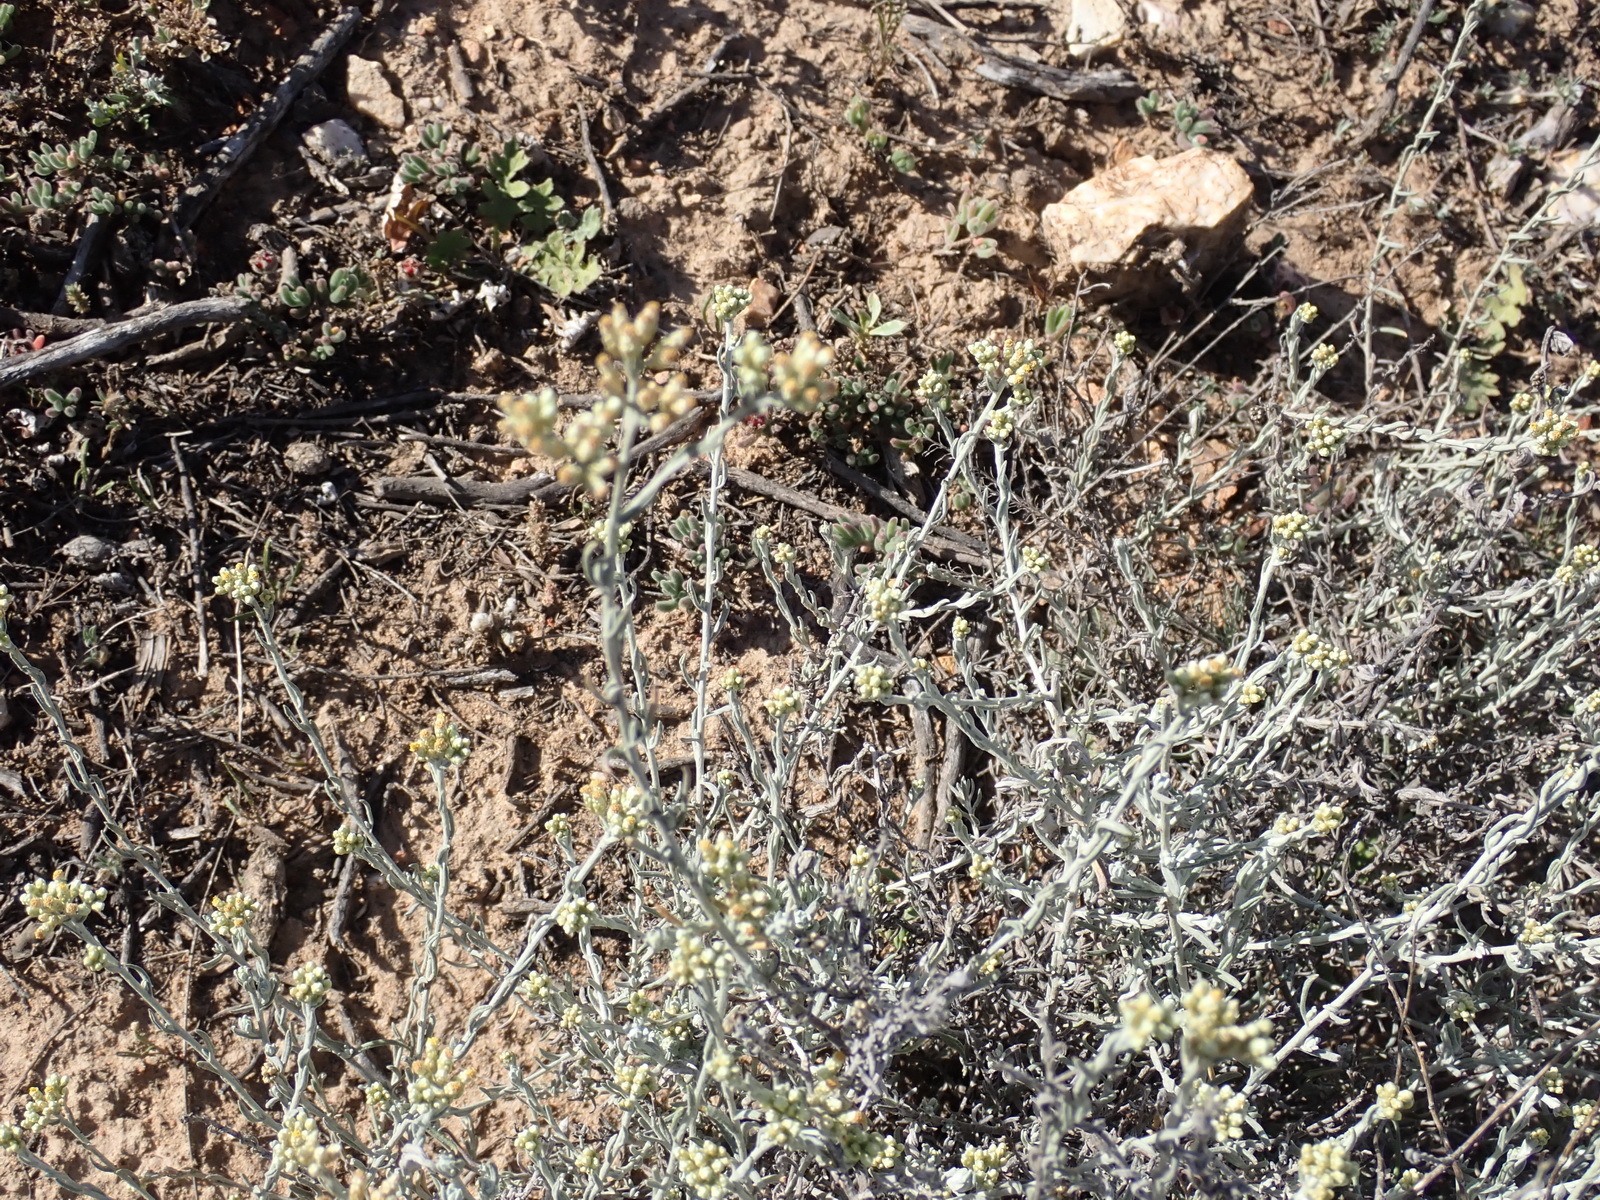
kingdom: Plantae
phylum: Tracheophyta
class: Magnoliopsida
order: Asterales
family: Asteraceae
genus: Helichrysum
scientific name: Helichrysum zeyheri
